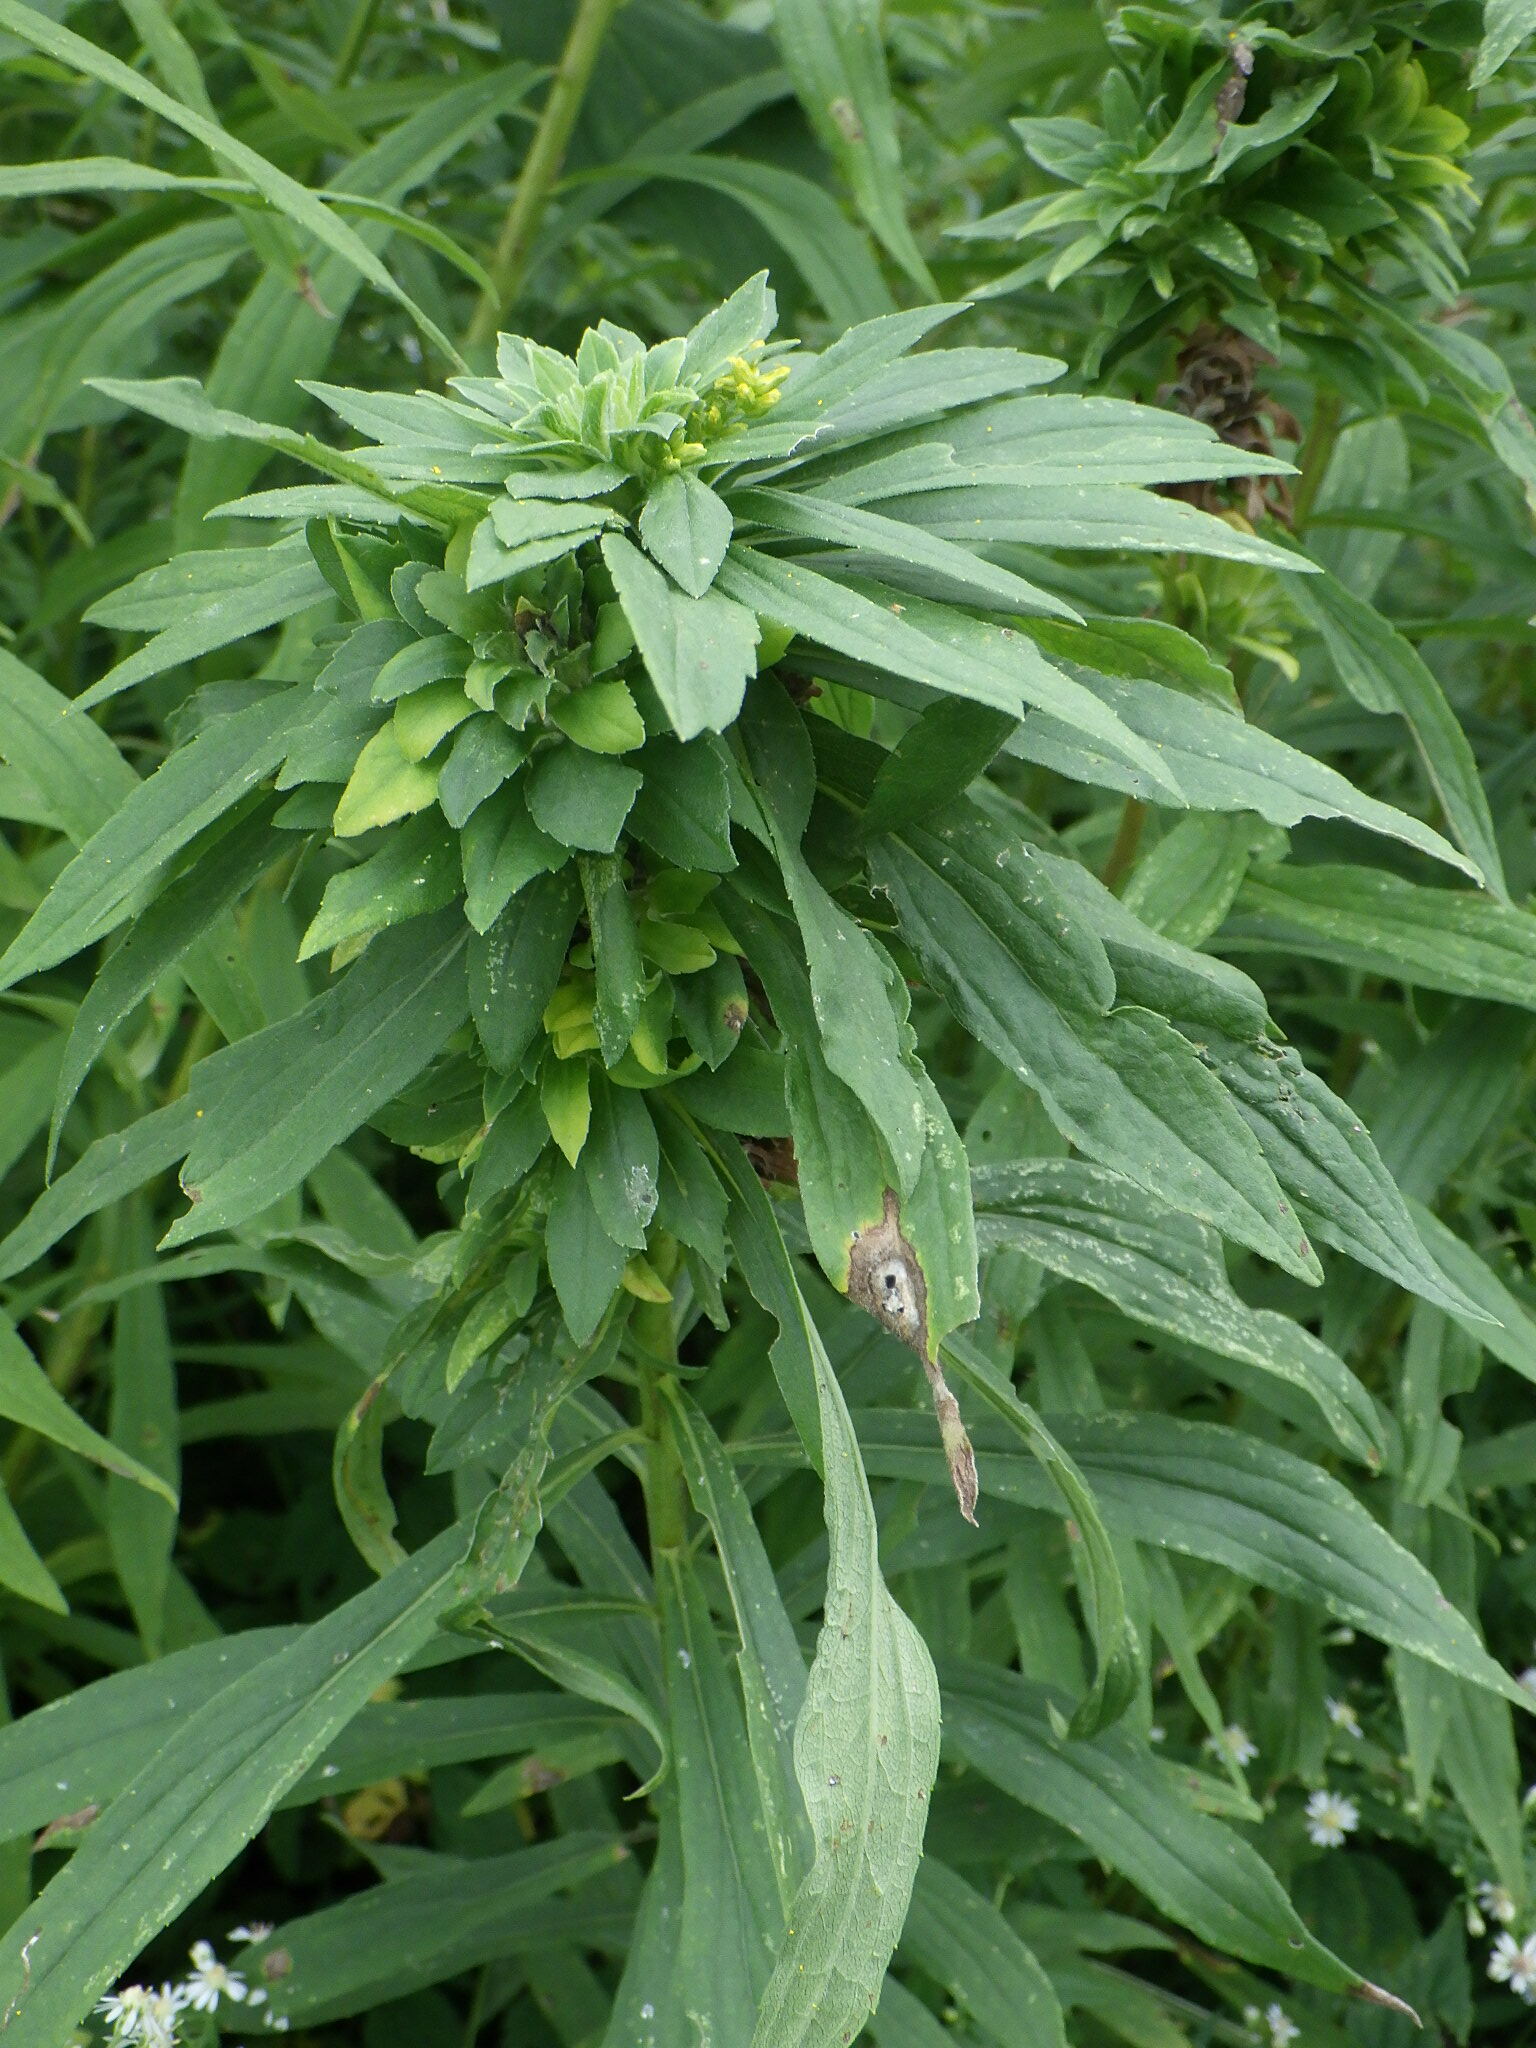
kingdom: Animalia
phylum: Arthropoda
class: Insecta
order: Diptera
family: Tephritidae
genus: Procecidochares
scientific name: Procecidochares atra
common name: Goldenrod brussels sprout gall fly
